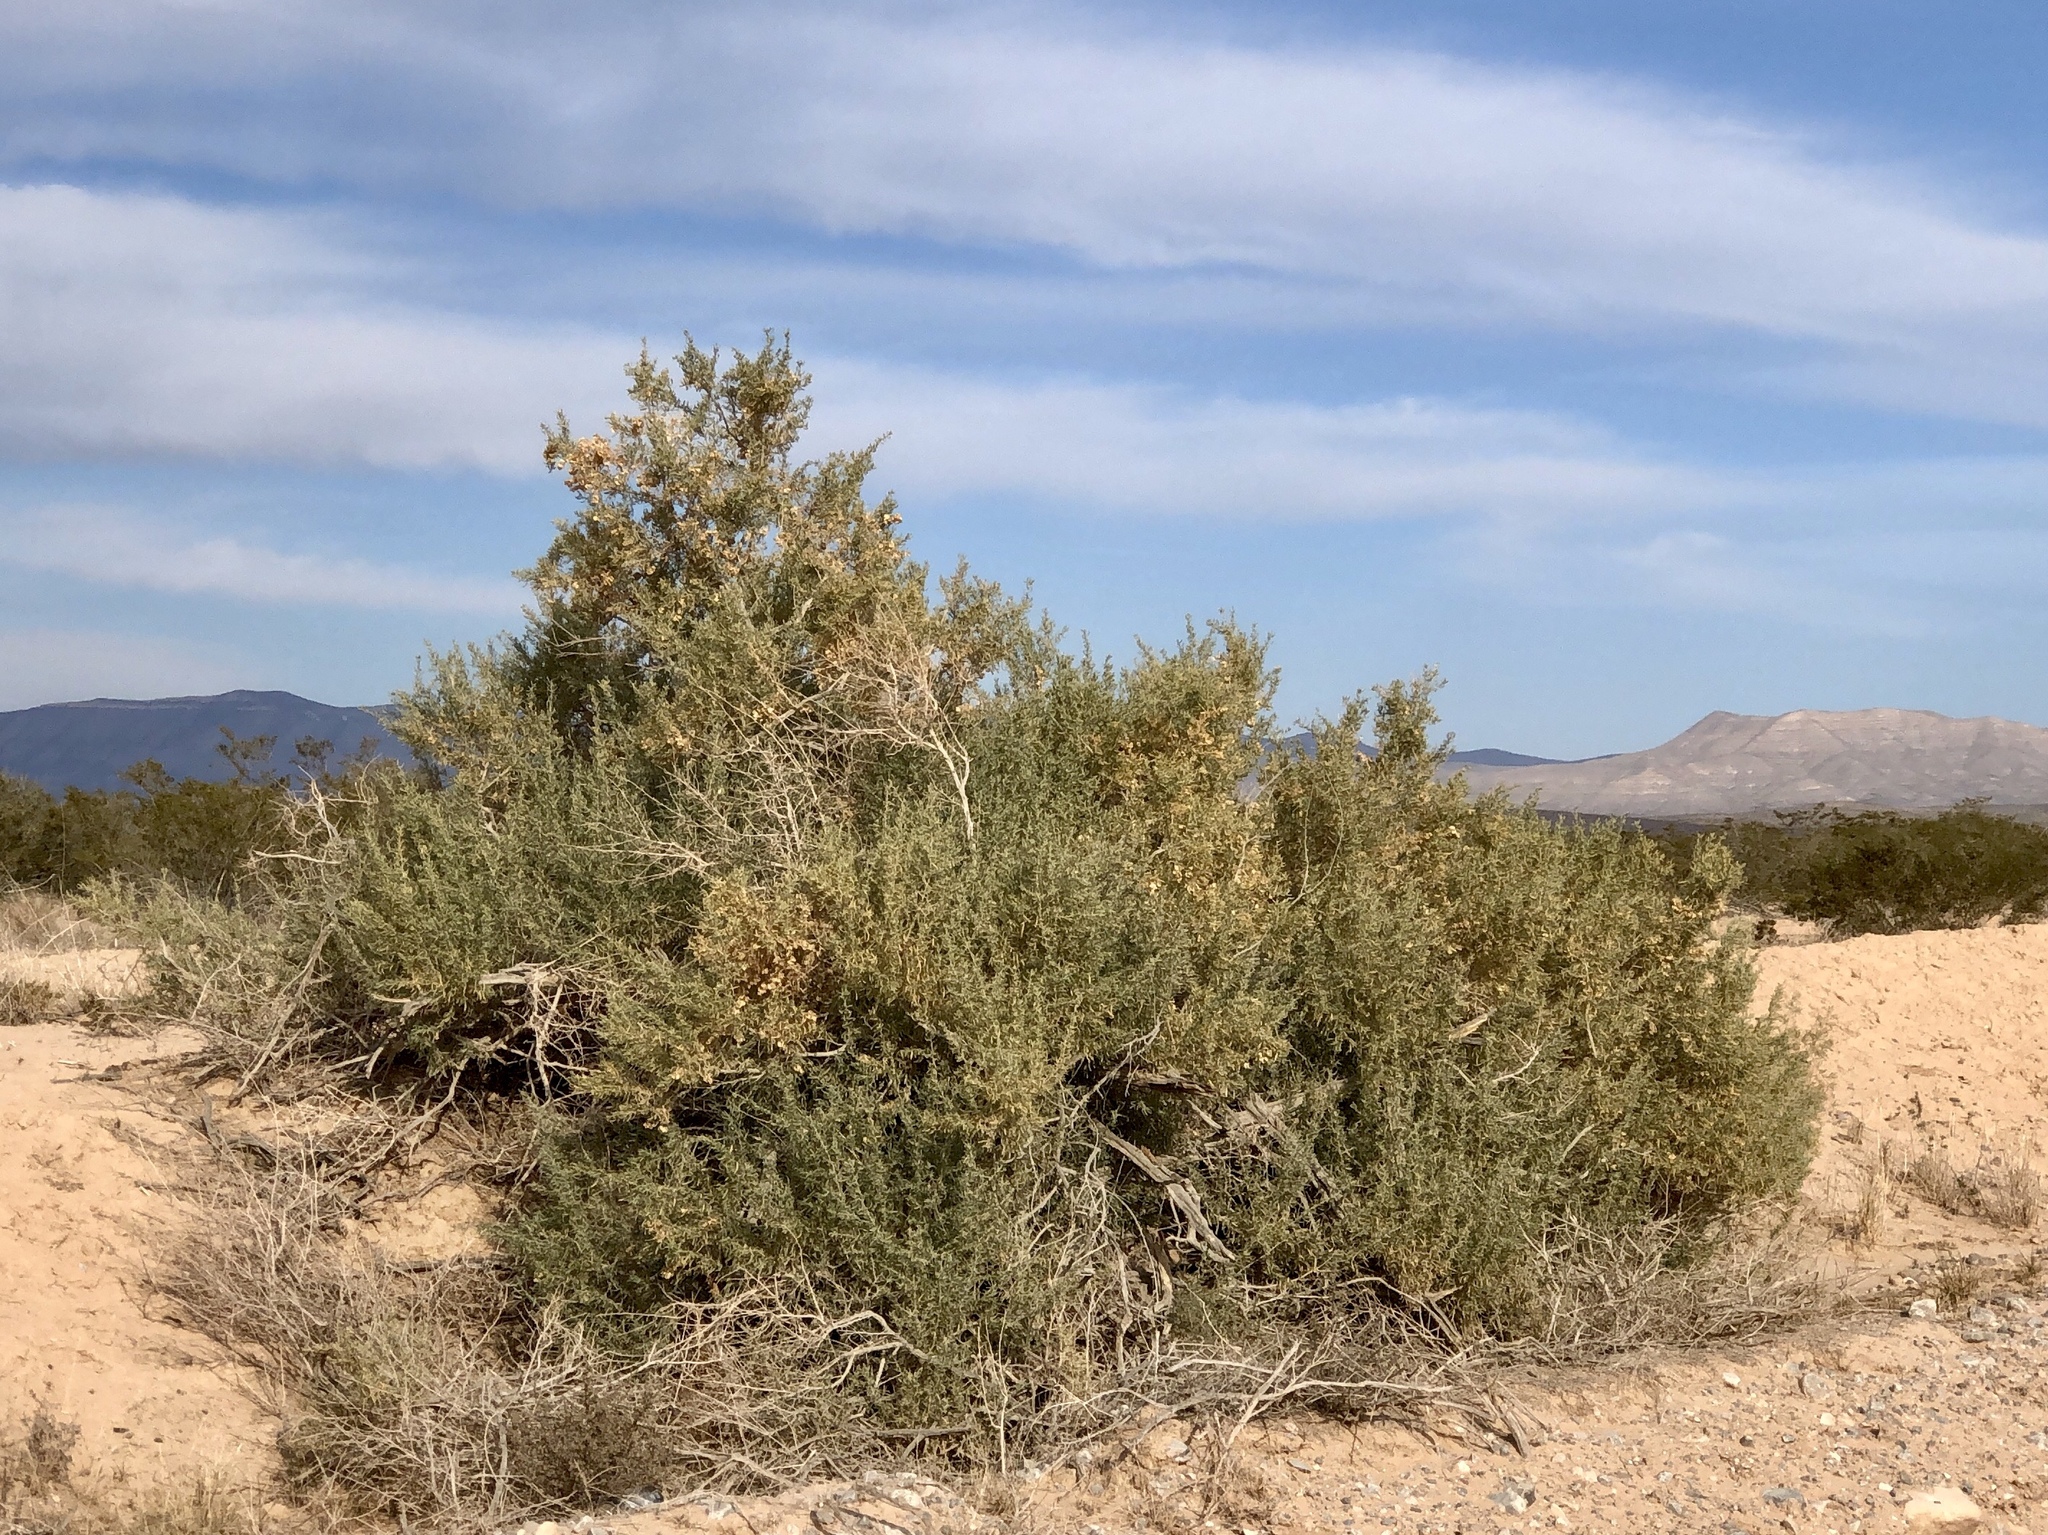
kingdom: Plantae
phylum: Tracheophyta
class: Magnoliopsida
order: Caryophyllales
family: Amaranthaceae
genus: Atriplex
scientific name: Atriplex canescens
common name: Four-wing saltbush
